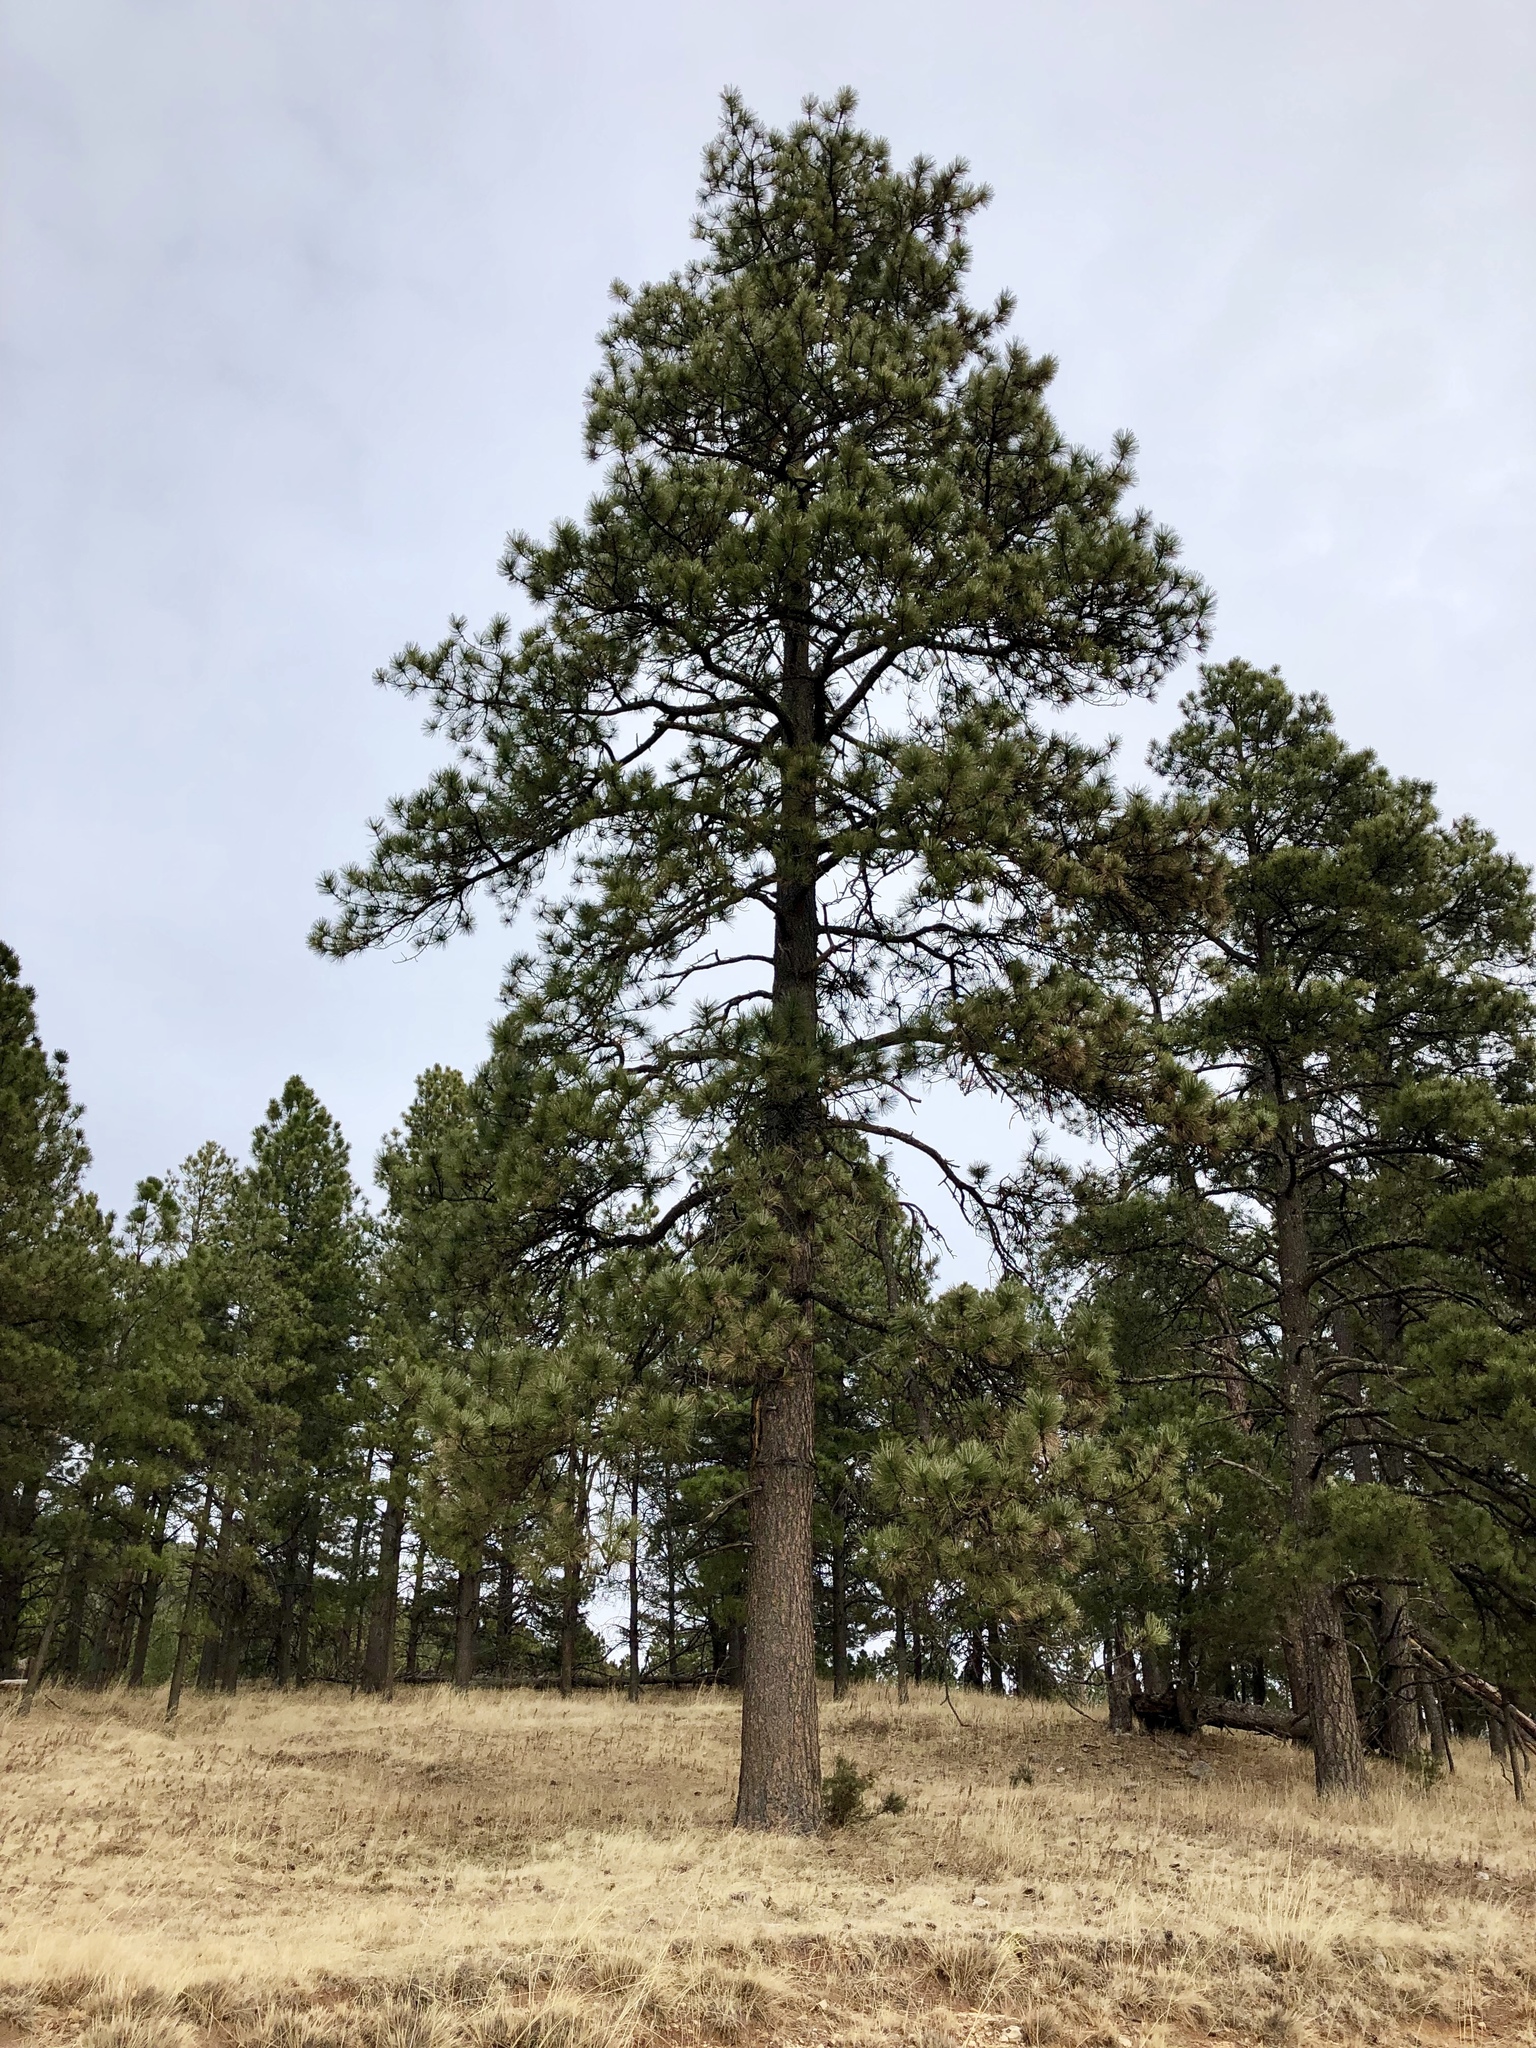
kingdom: Plantae
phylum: Tracheophyta
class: Pinopsida
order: Pinales
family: Pinaceae
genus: Pinus
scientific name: Pinus ponderosa
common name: Western yellow-pine
